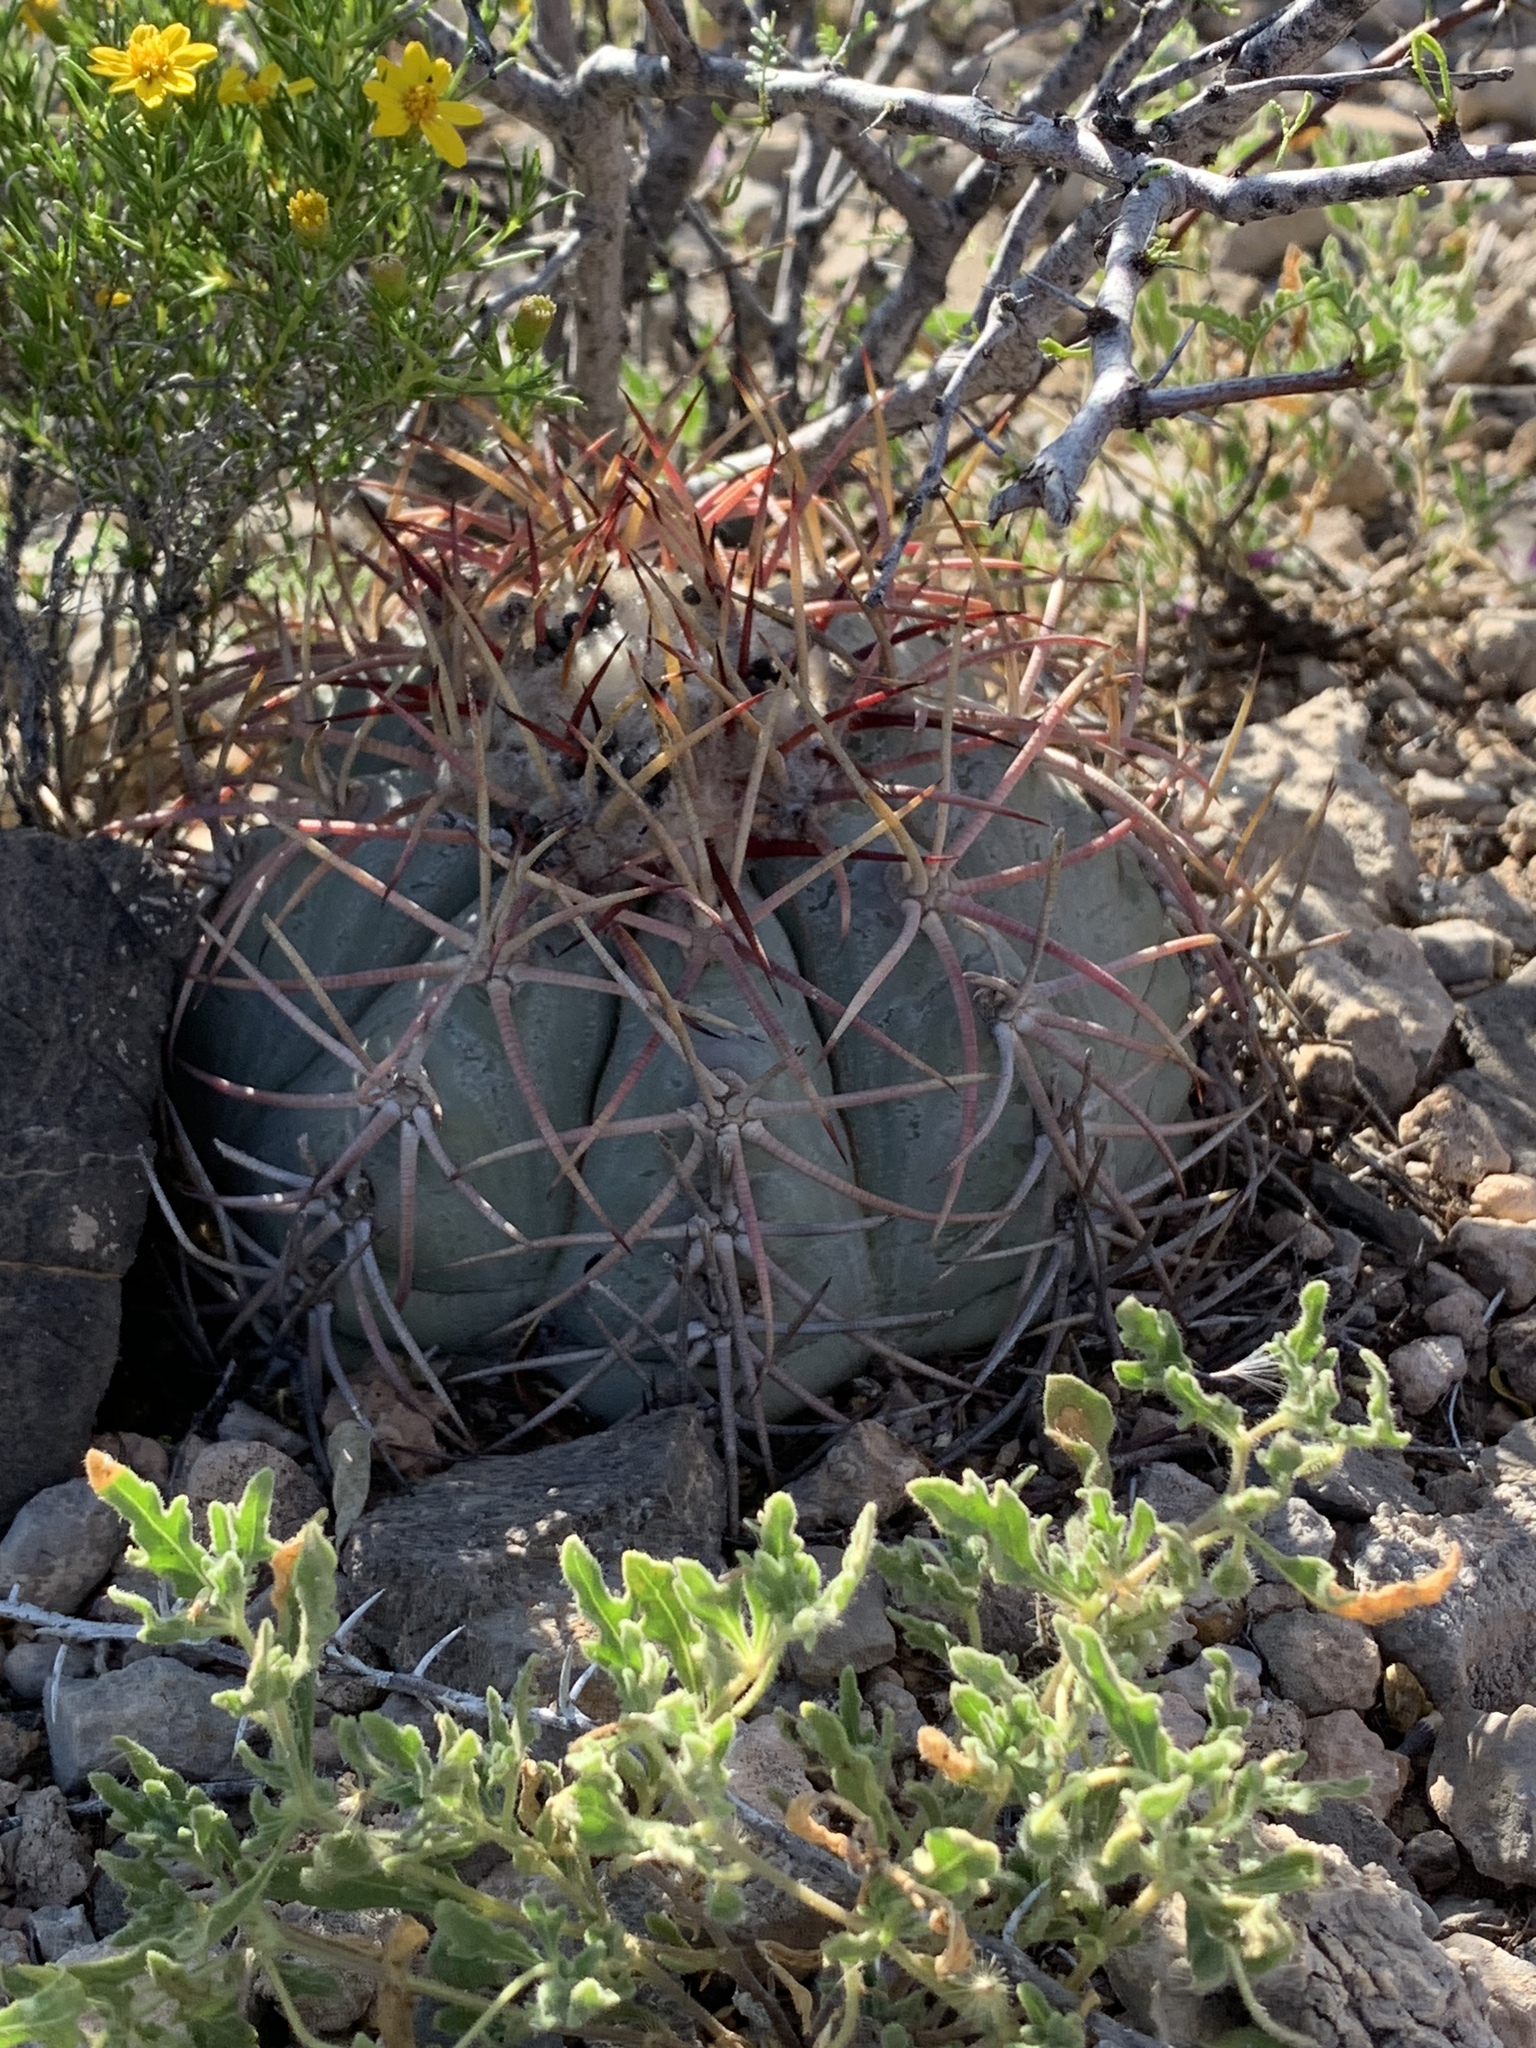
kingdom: Plantae
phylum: Tracheophyta
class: Magnoliopsida
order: Caryophyllales
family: Cactaceae
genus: Echinocactus
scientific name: Echinocactus horizonthalonius
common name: Devilshead
